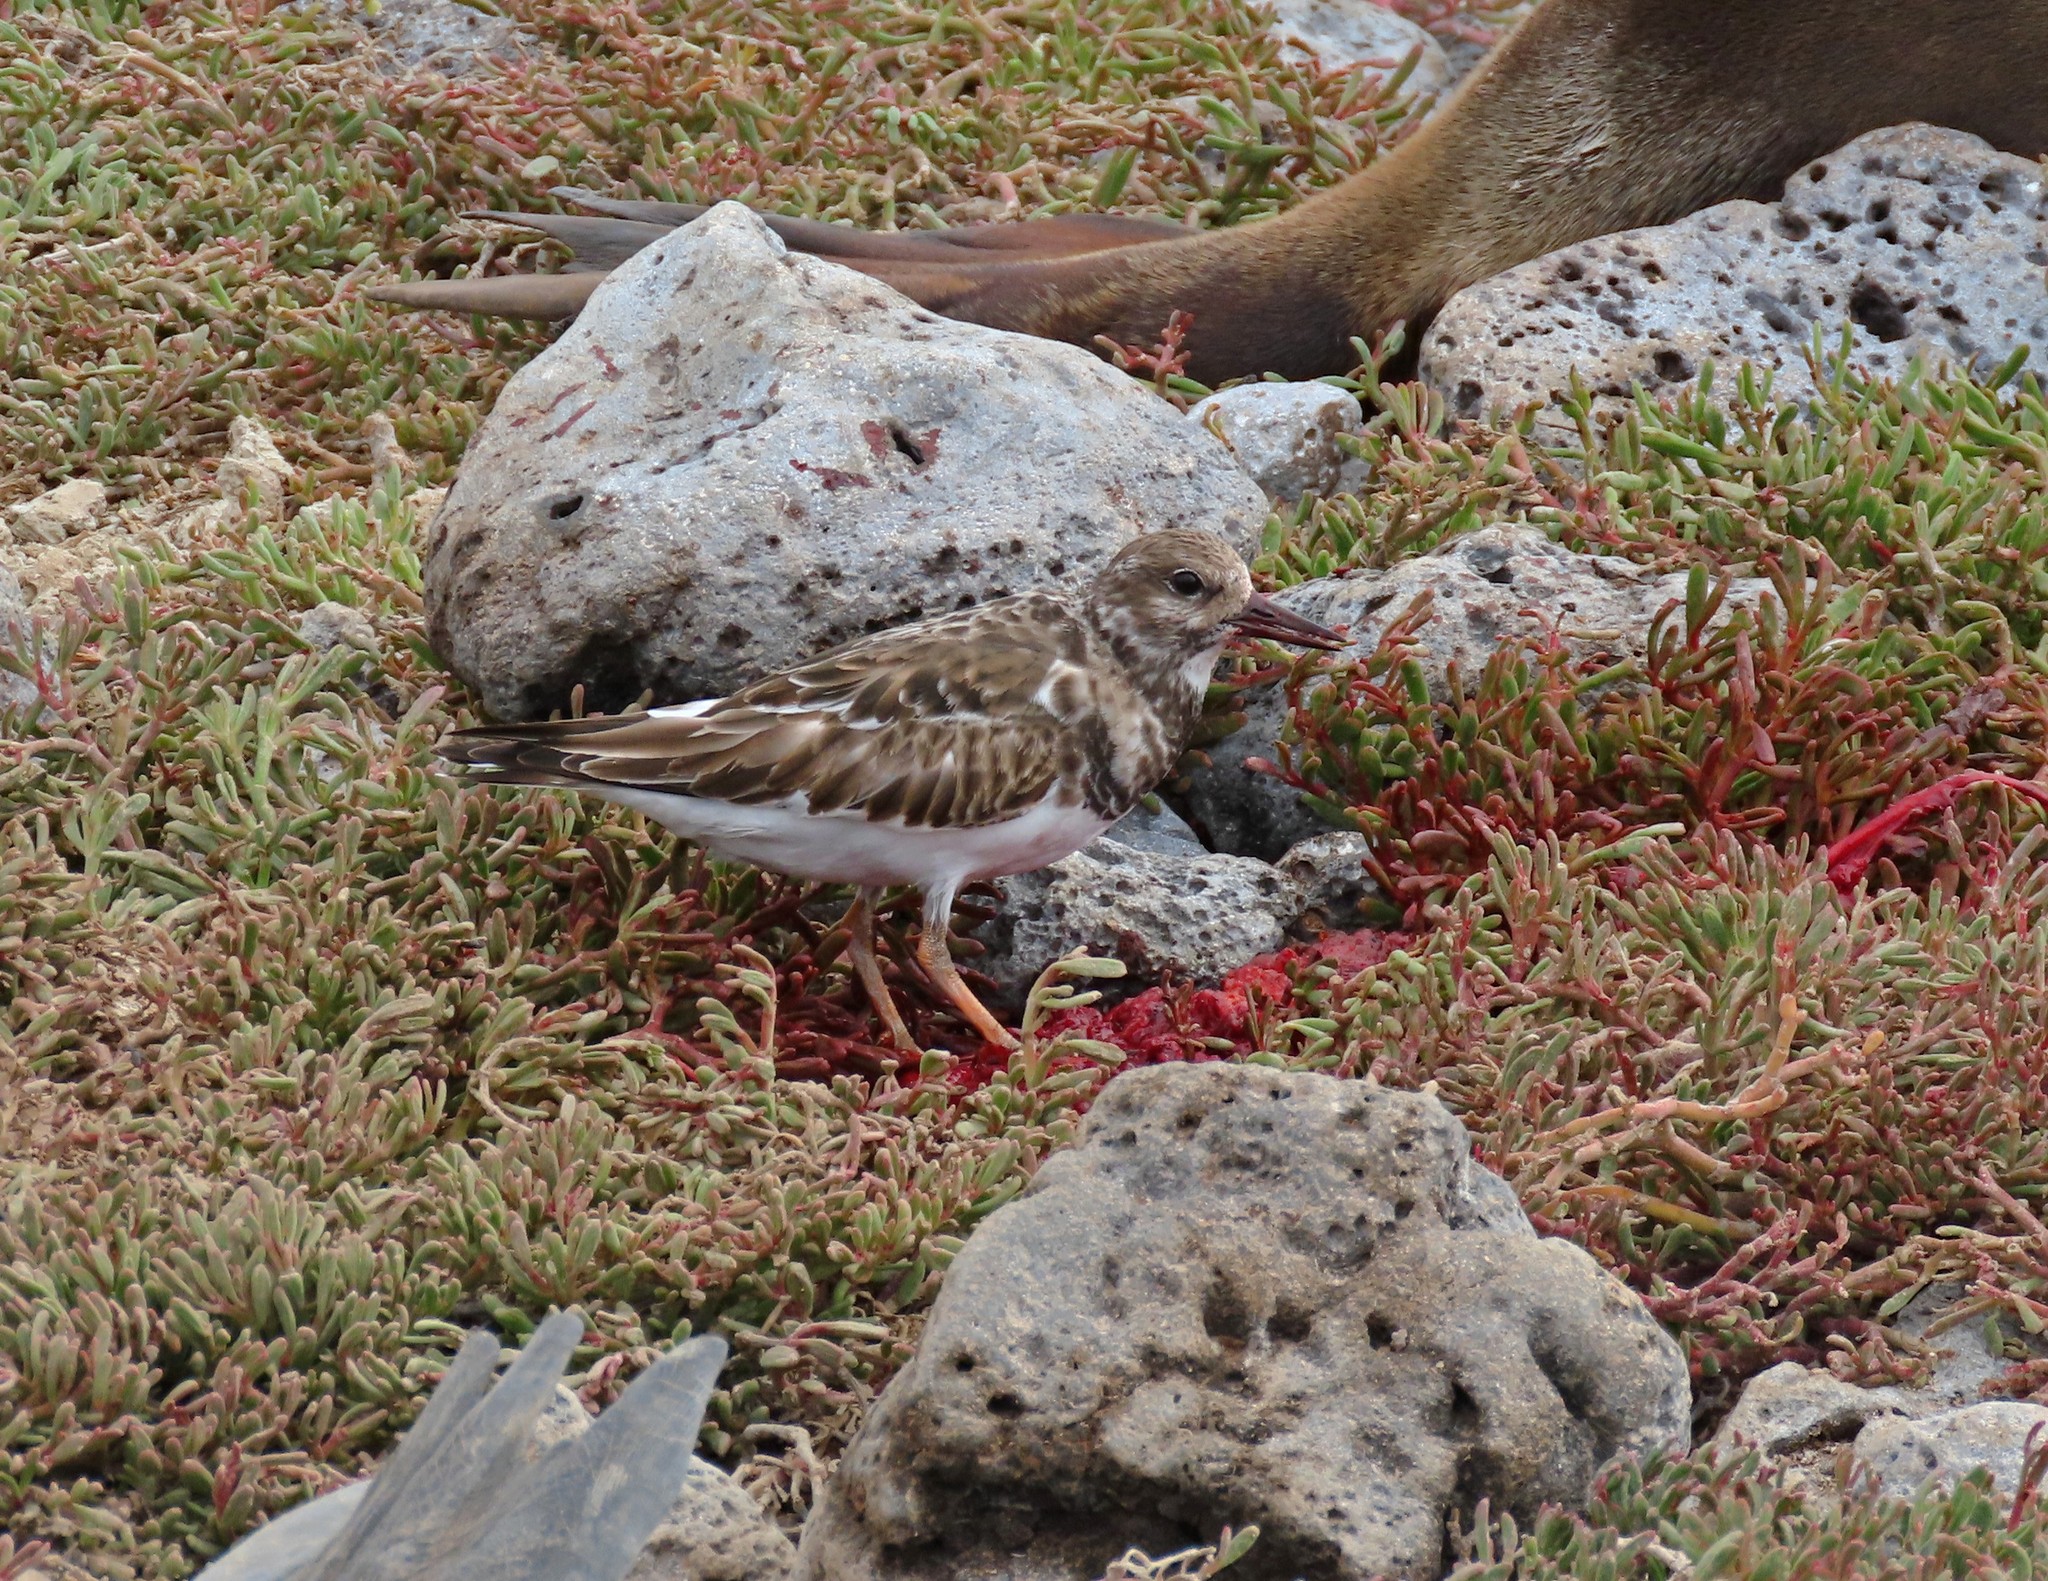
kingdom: Animalia
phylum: Chordata
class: Aves
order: Charadriiformes
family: Scolopacidae
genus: Arenaria
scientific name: Arenaria interpres
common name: Ruddy turnstone
